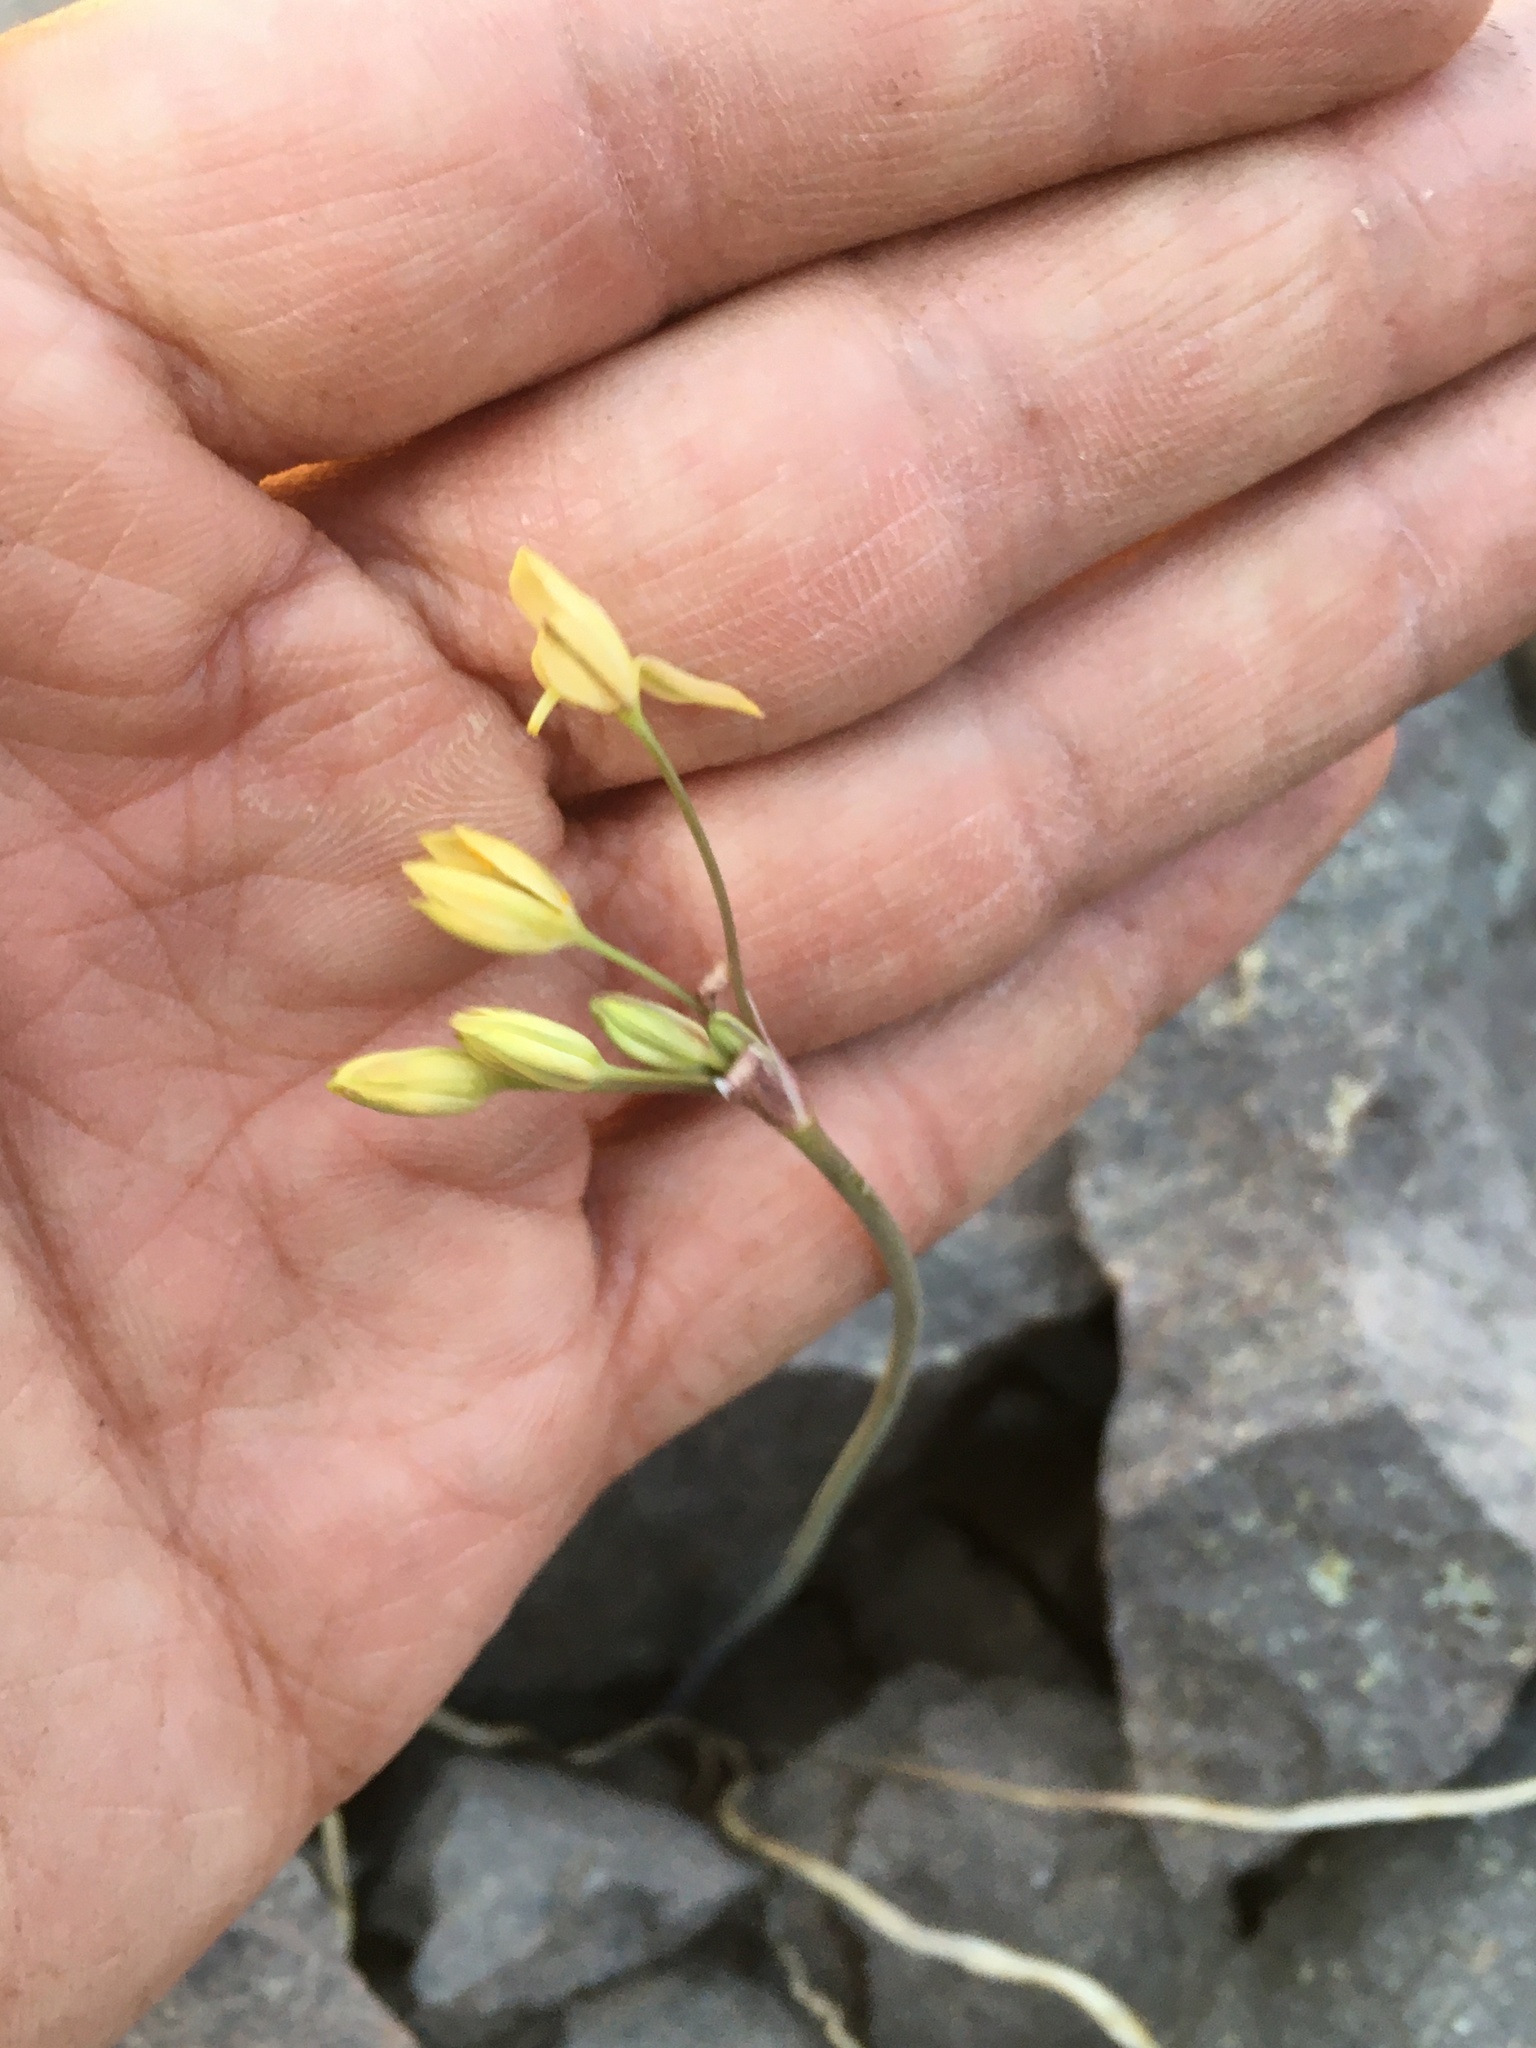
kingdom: Plantae
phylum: Tracheophyta
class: Liliopsida
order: Asparagales
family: Amaryllidaceae
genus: Latace
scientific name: Latace andina
